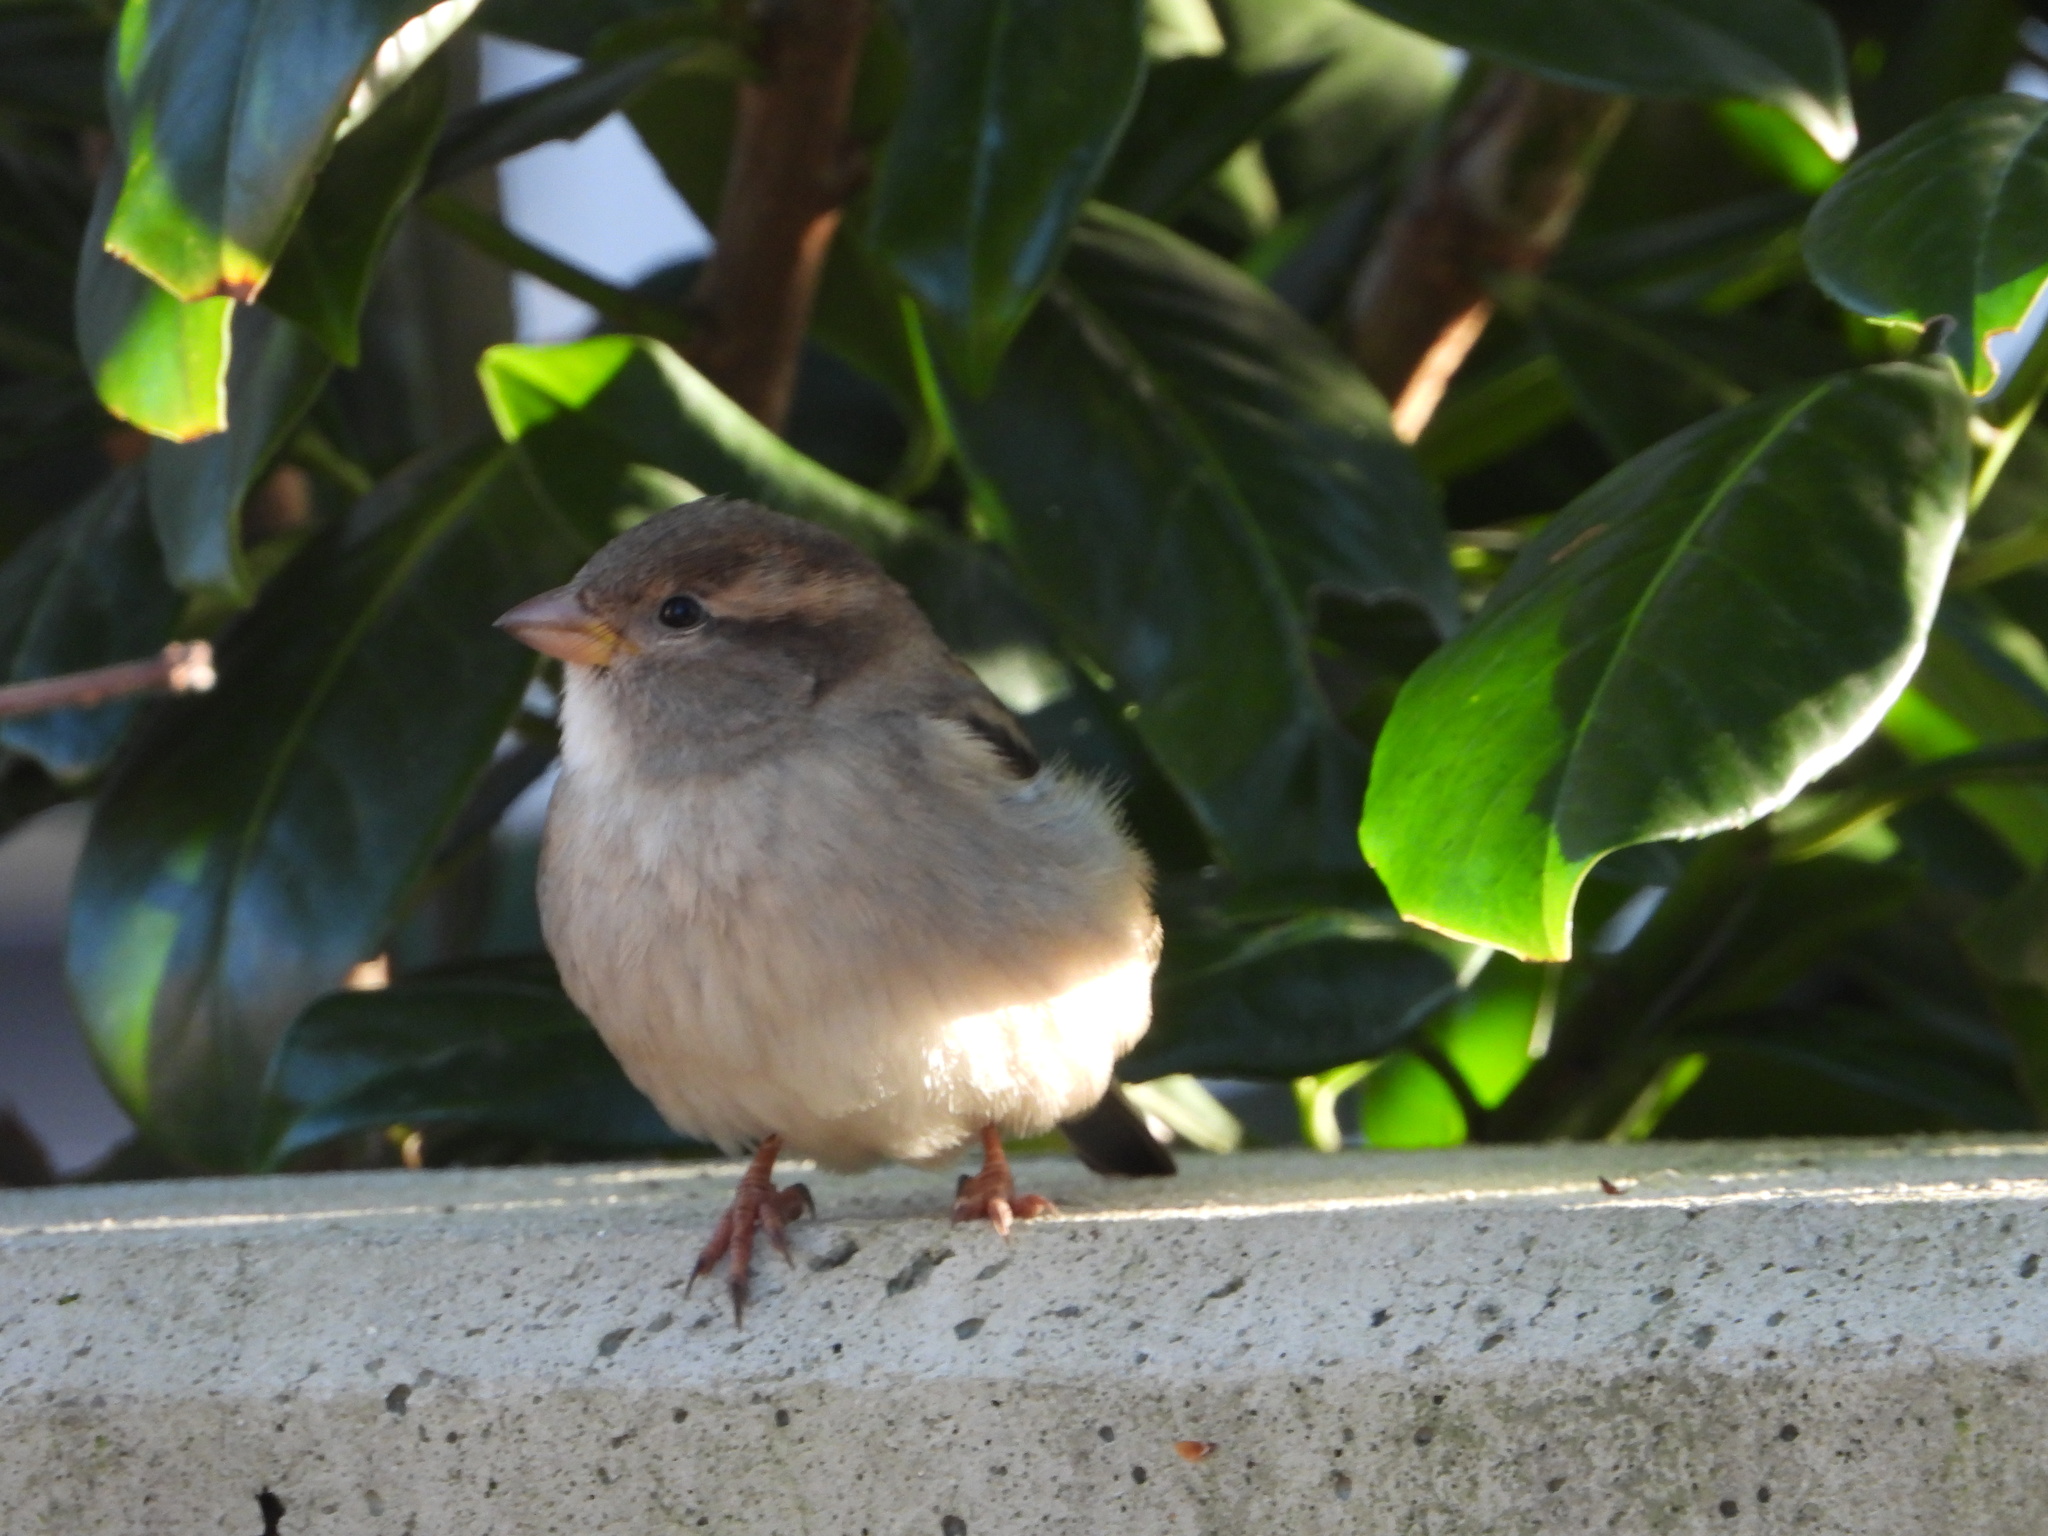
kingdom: Animalia
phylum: Chordata
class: Aves
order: Passeriformes
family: Passeridae
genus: Passer
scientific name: Passer domesticus
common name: House sparrow
